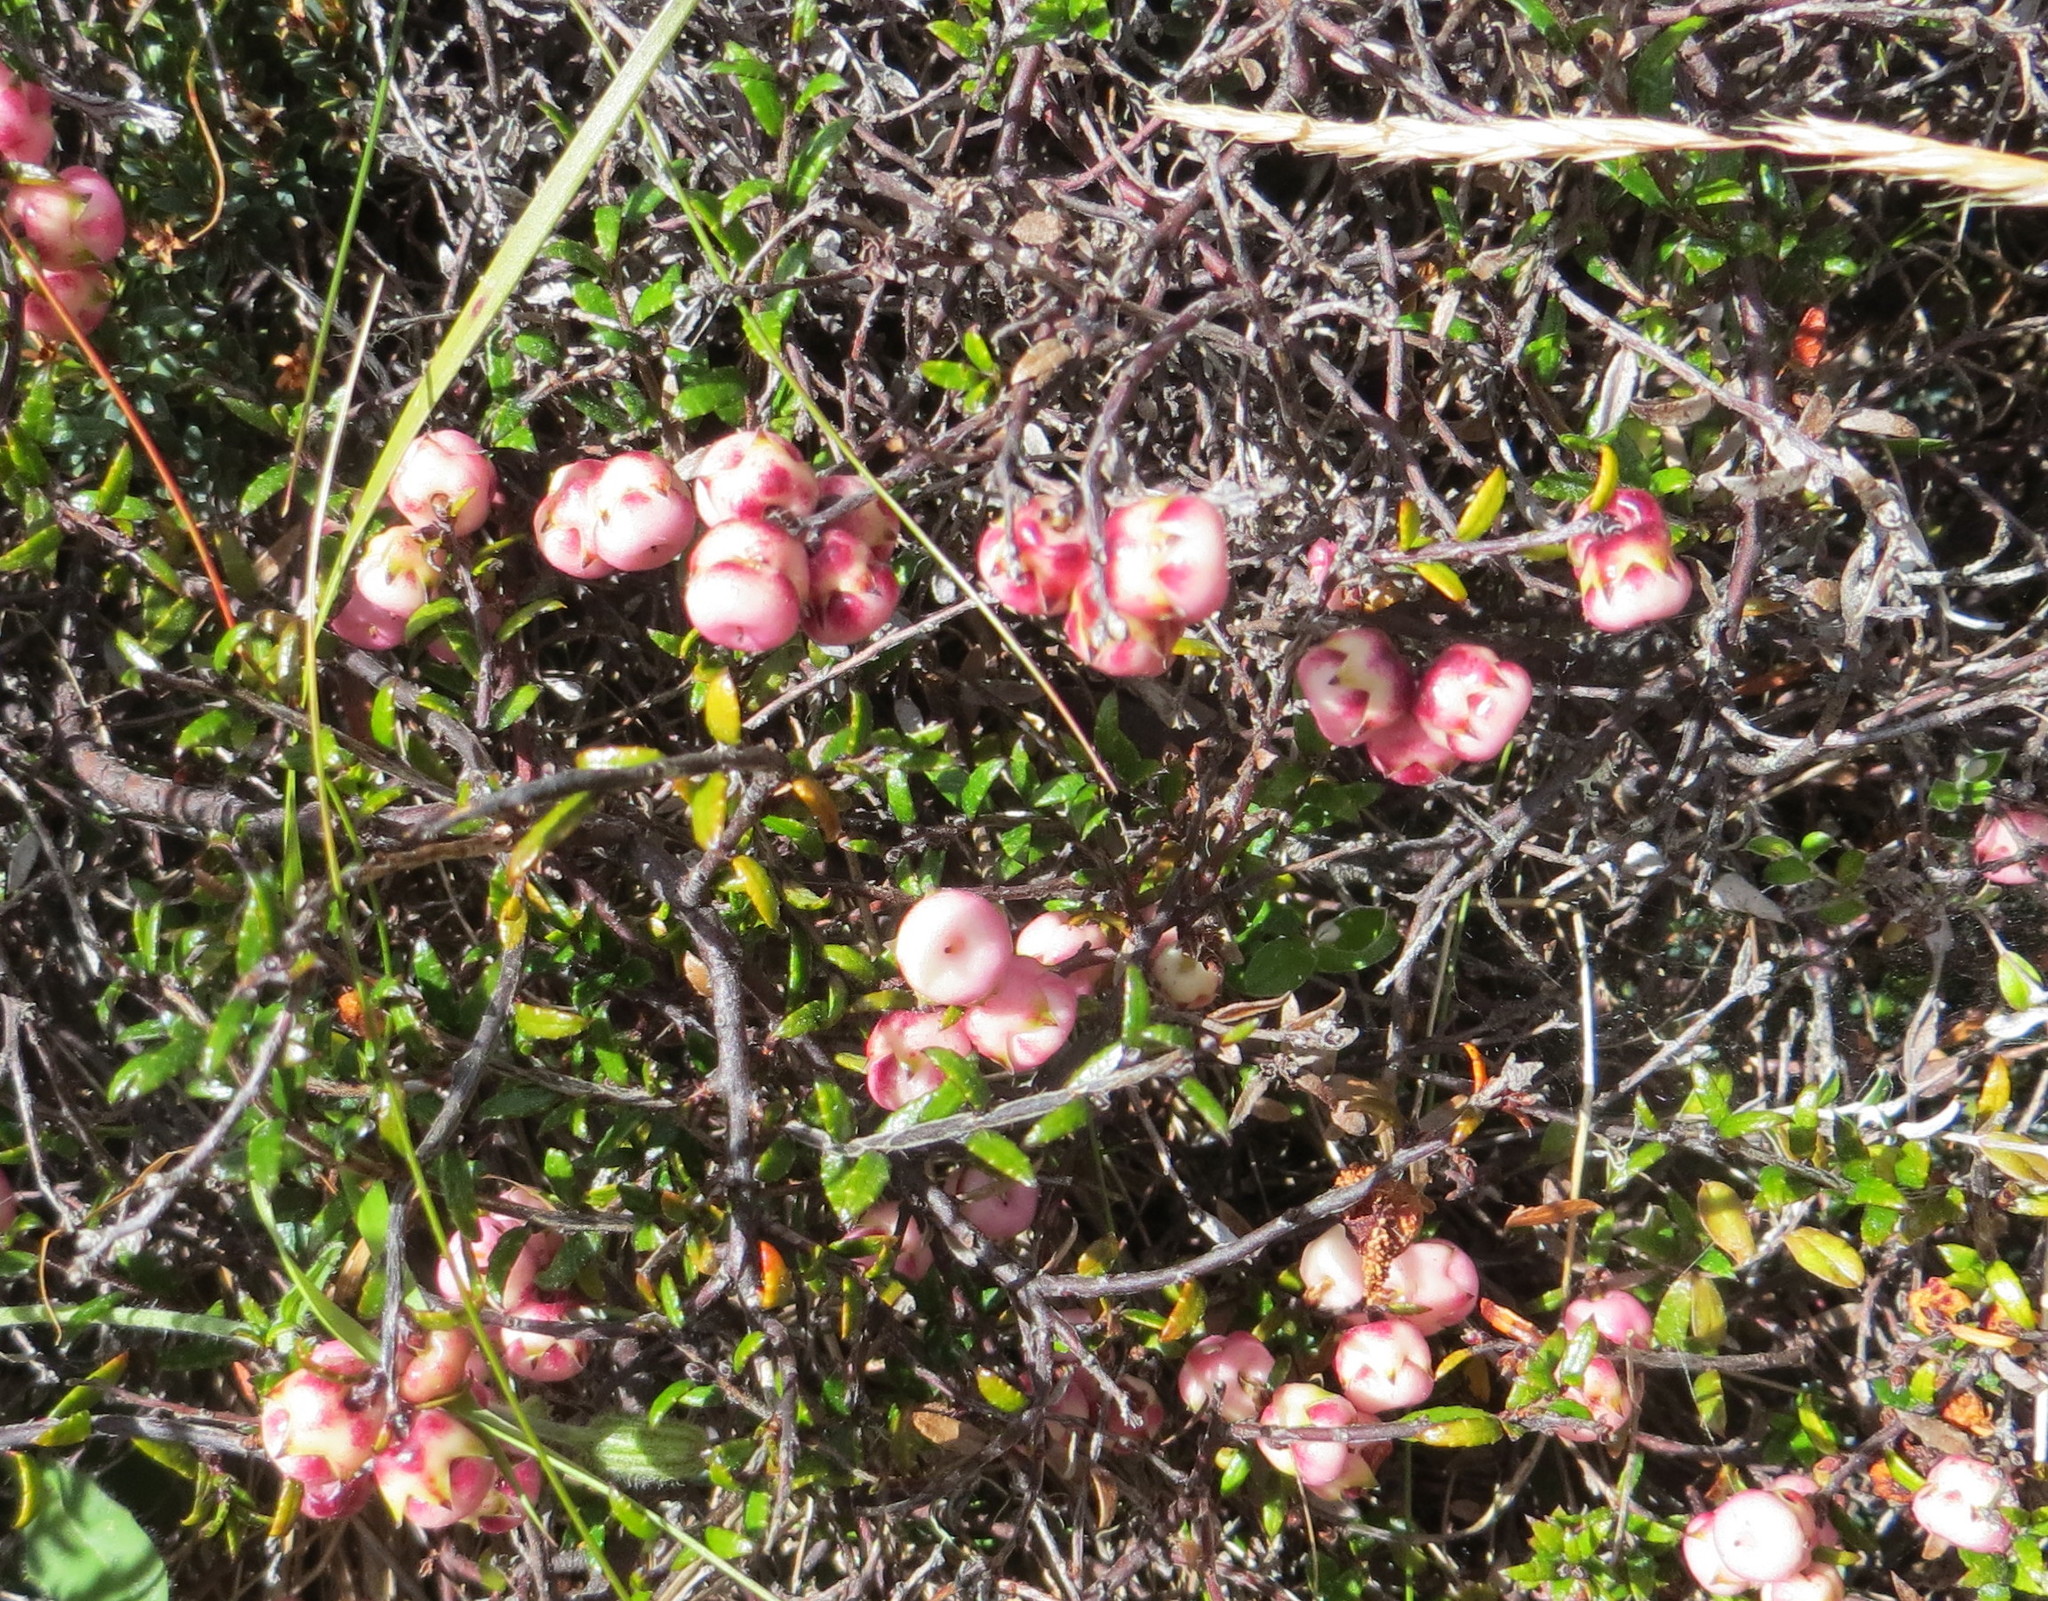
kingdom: Plantae
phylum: Tracheophyta
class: Magnoliopsida
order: Ericales
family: Ericaceae
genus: Gaultheria
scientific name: Gaultheria macrostigma
